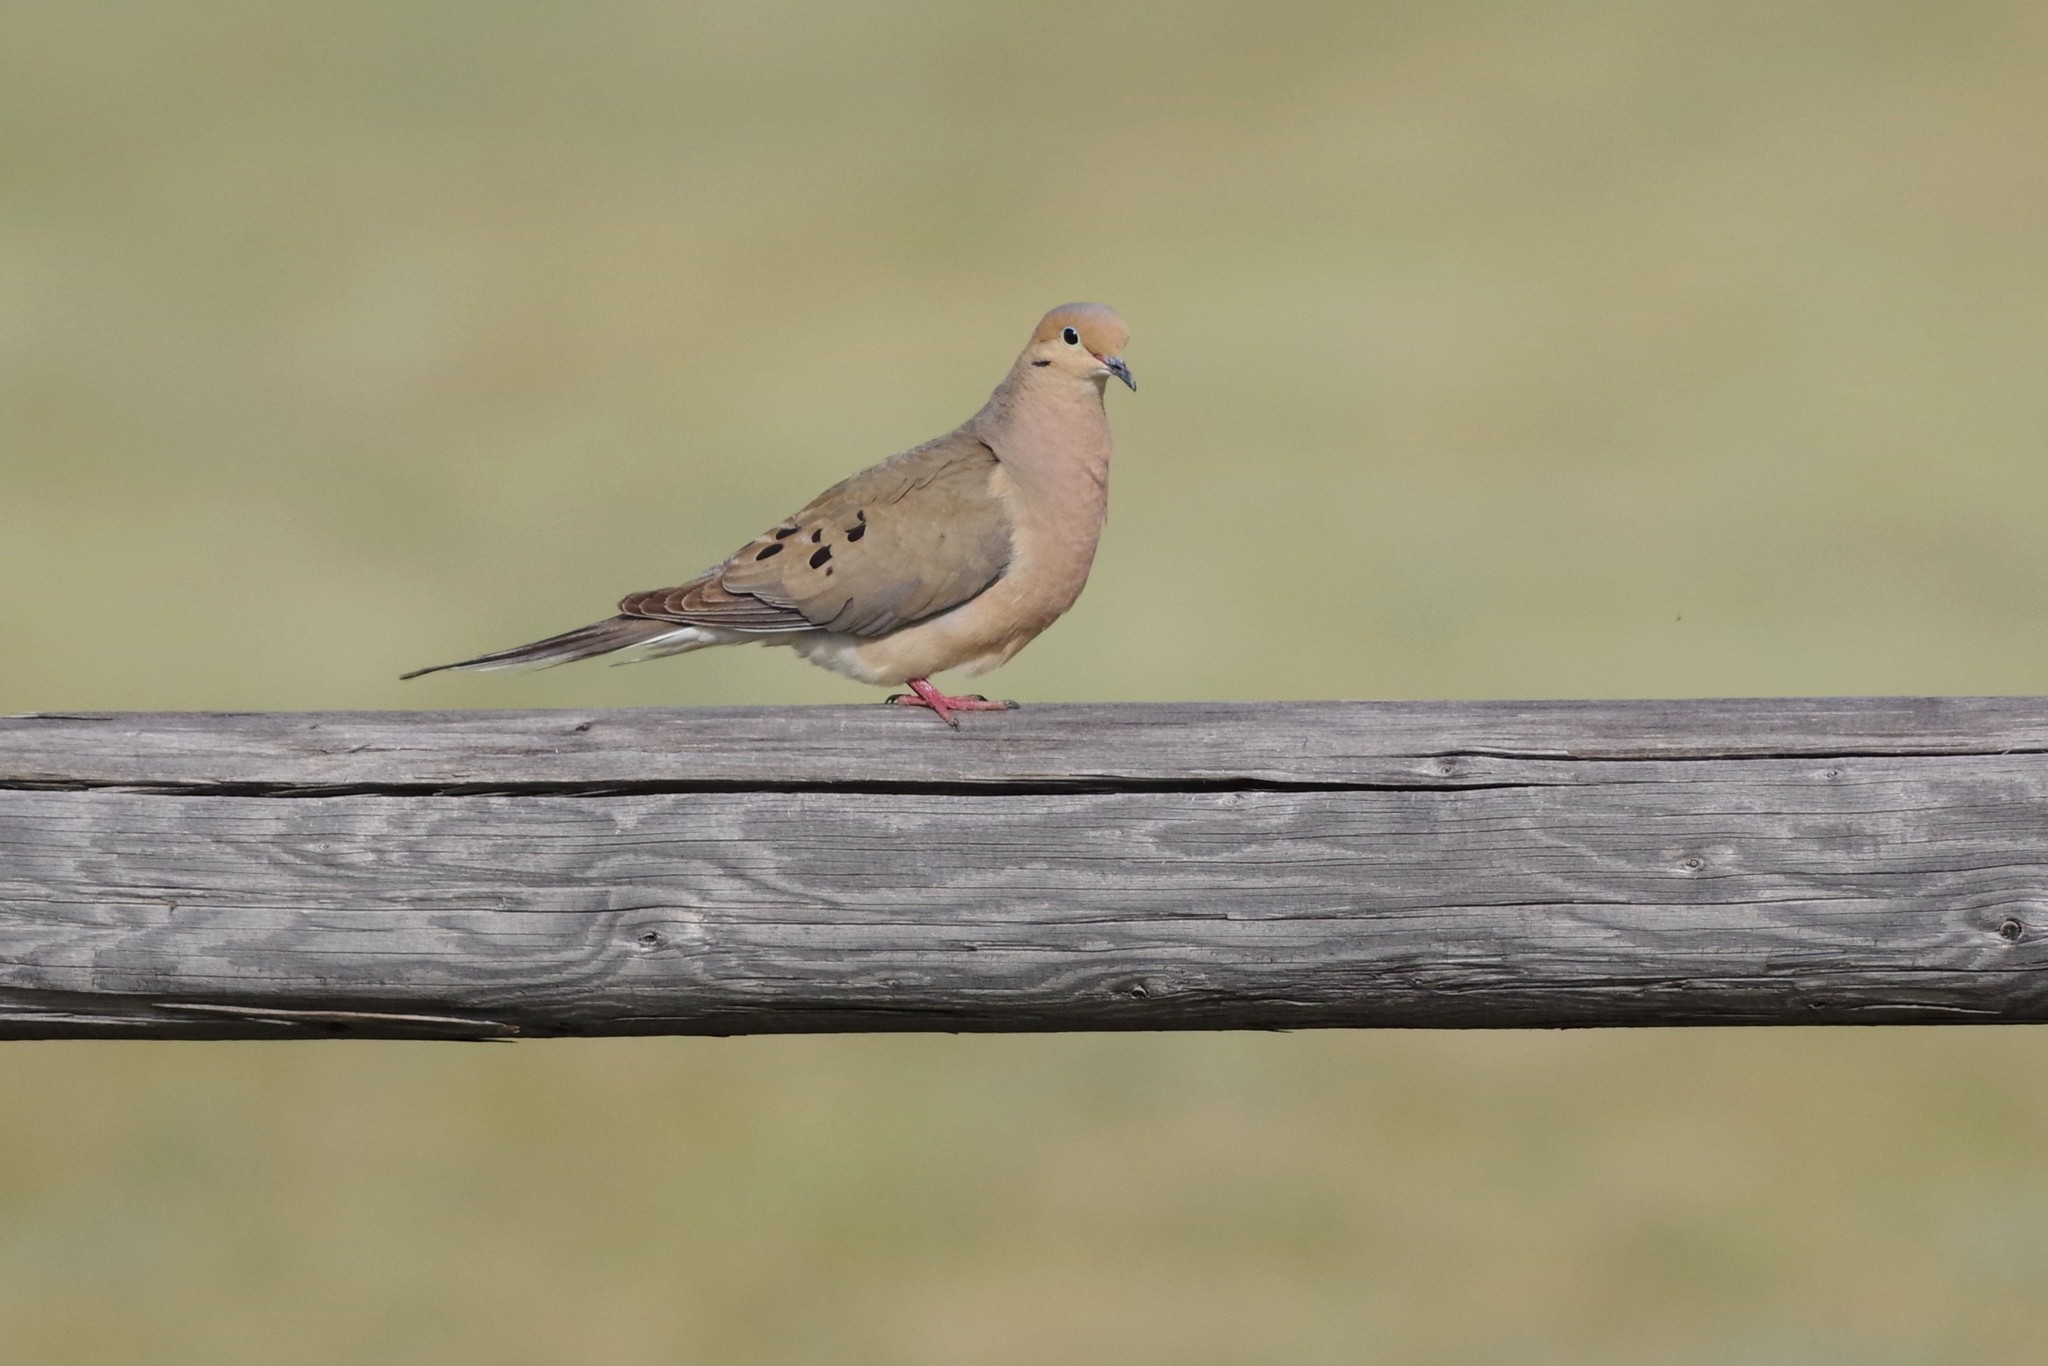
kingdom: Animalia
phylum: Chordata
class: Aves
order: Columbiformes
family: Columbidae
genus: Zenaida
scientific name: Zenaida macroura
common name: Mourning dove
